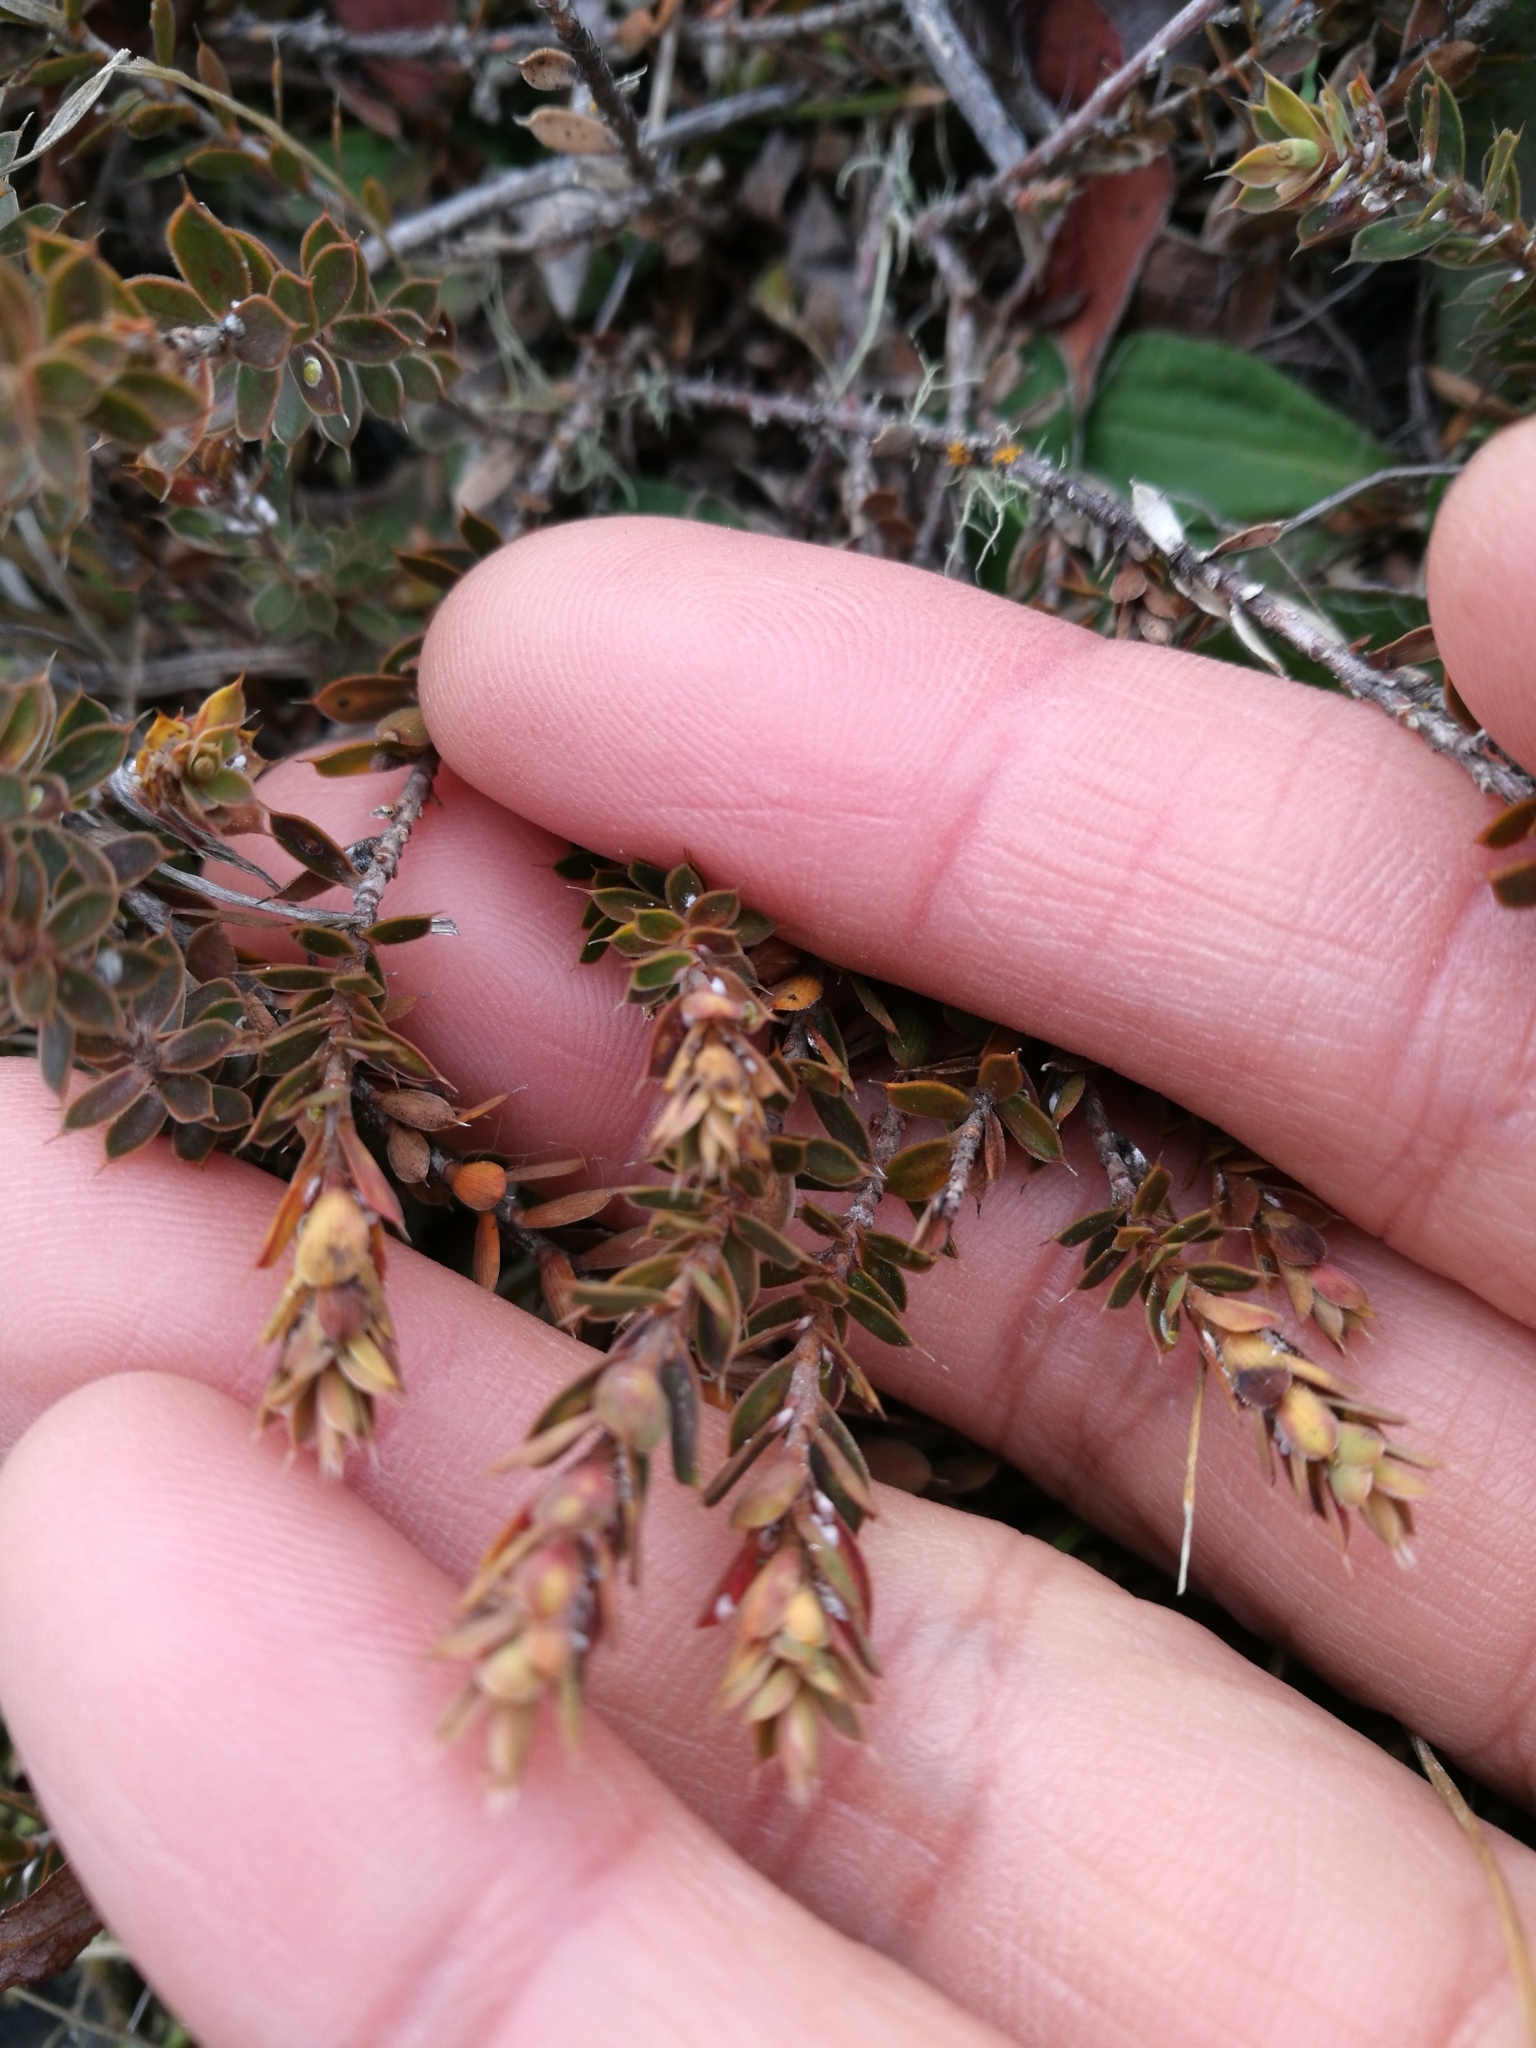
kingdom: Plantae
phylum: Tracheophyta
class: Magnoliopsida
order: Ericales
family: Ericaceae
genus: Styphelia
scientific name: Styphelia nesophila
